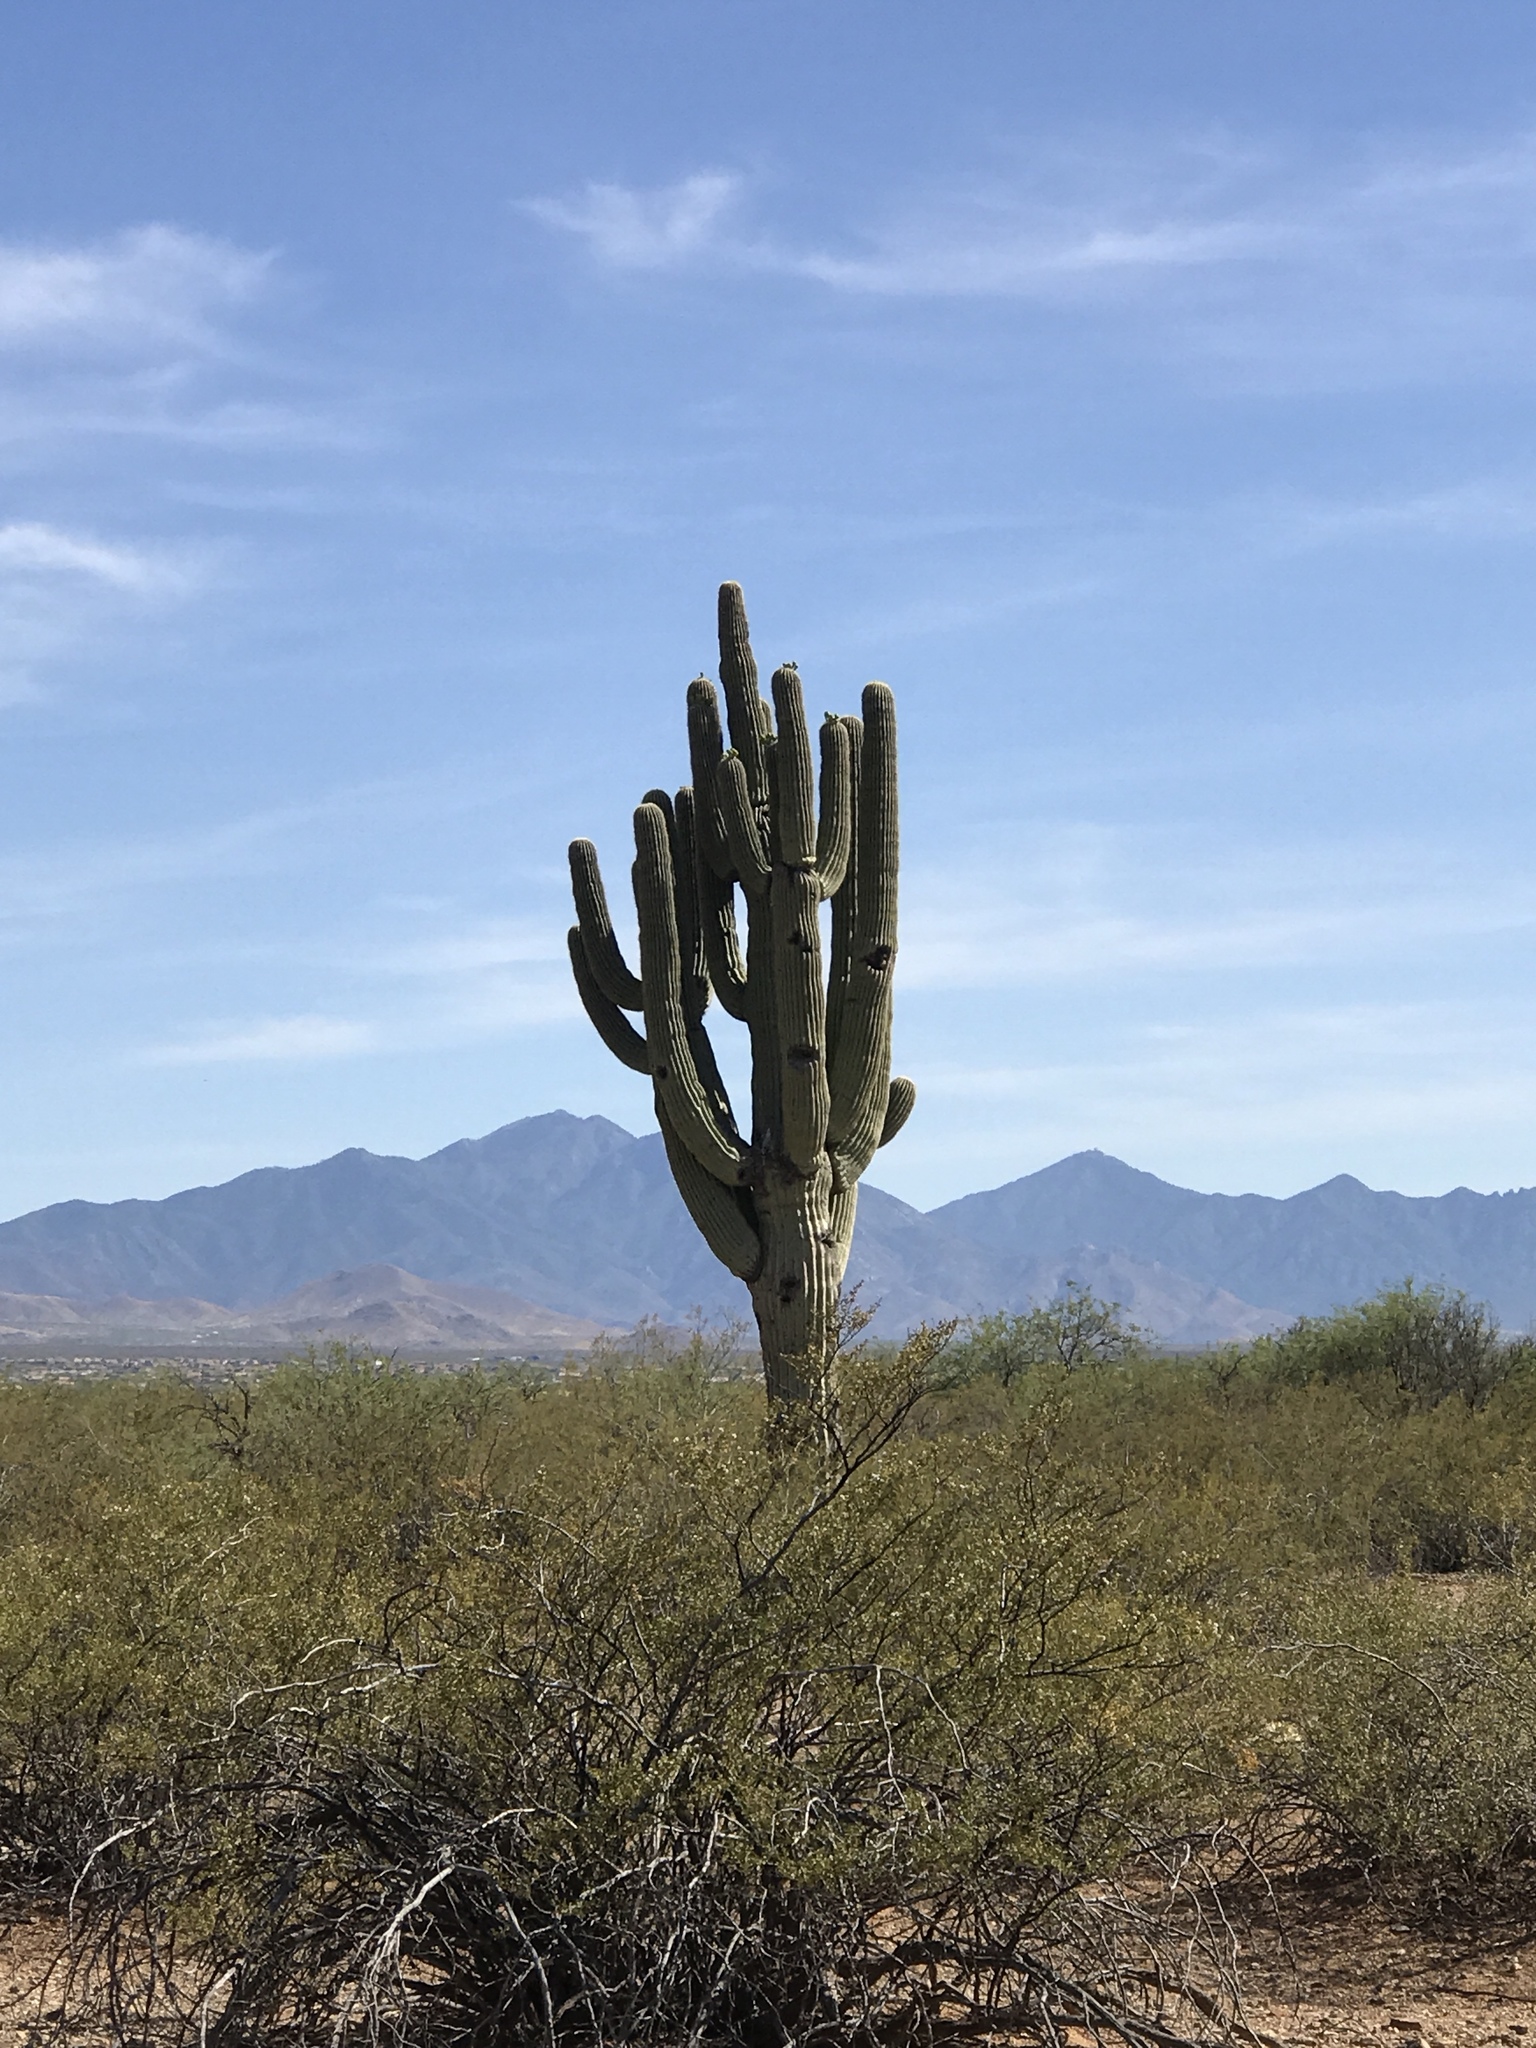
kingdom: Plantae
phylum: Tracheophyta
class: Magnoliopsida
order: Caryophyllales
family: Cactaceae
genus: Carnegiea
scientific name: Carnegiea gigantea
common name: Saguaro
